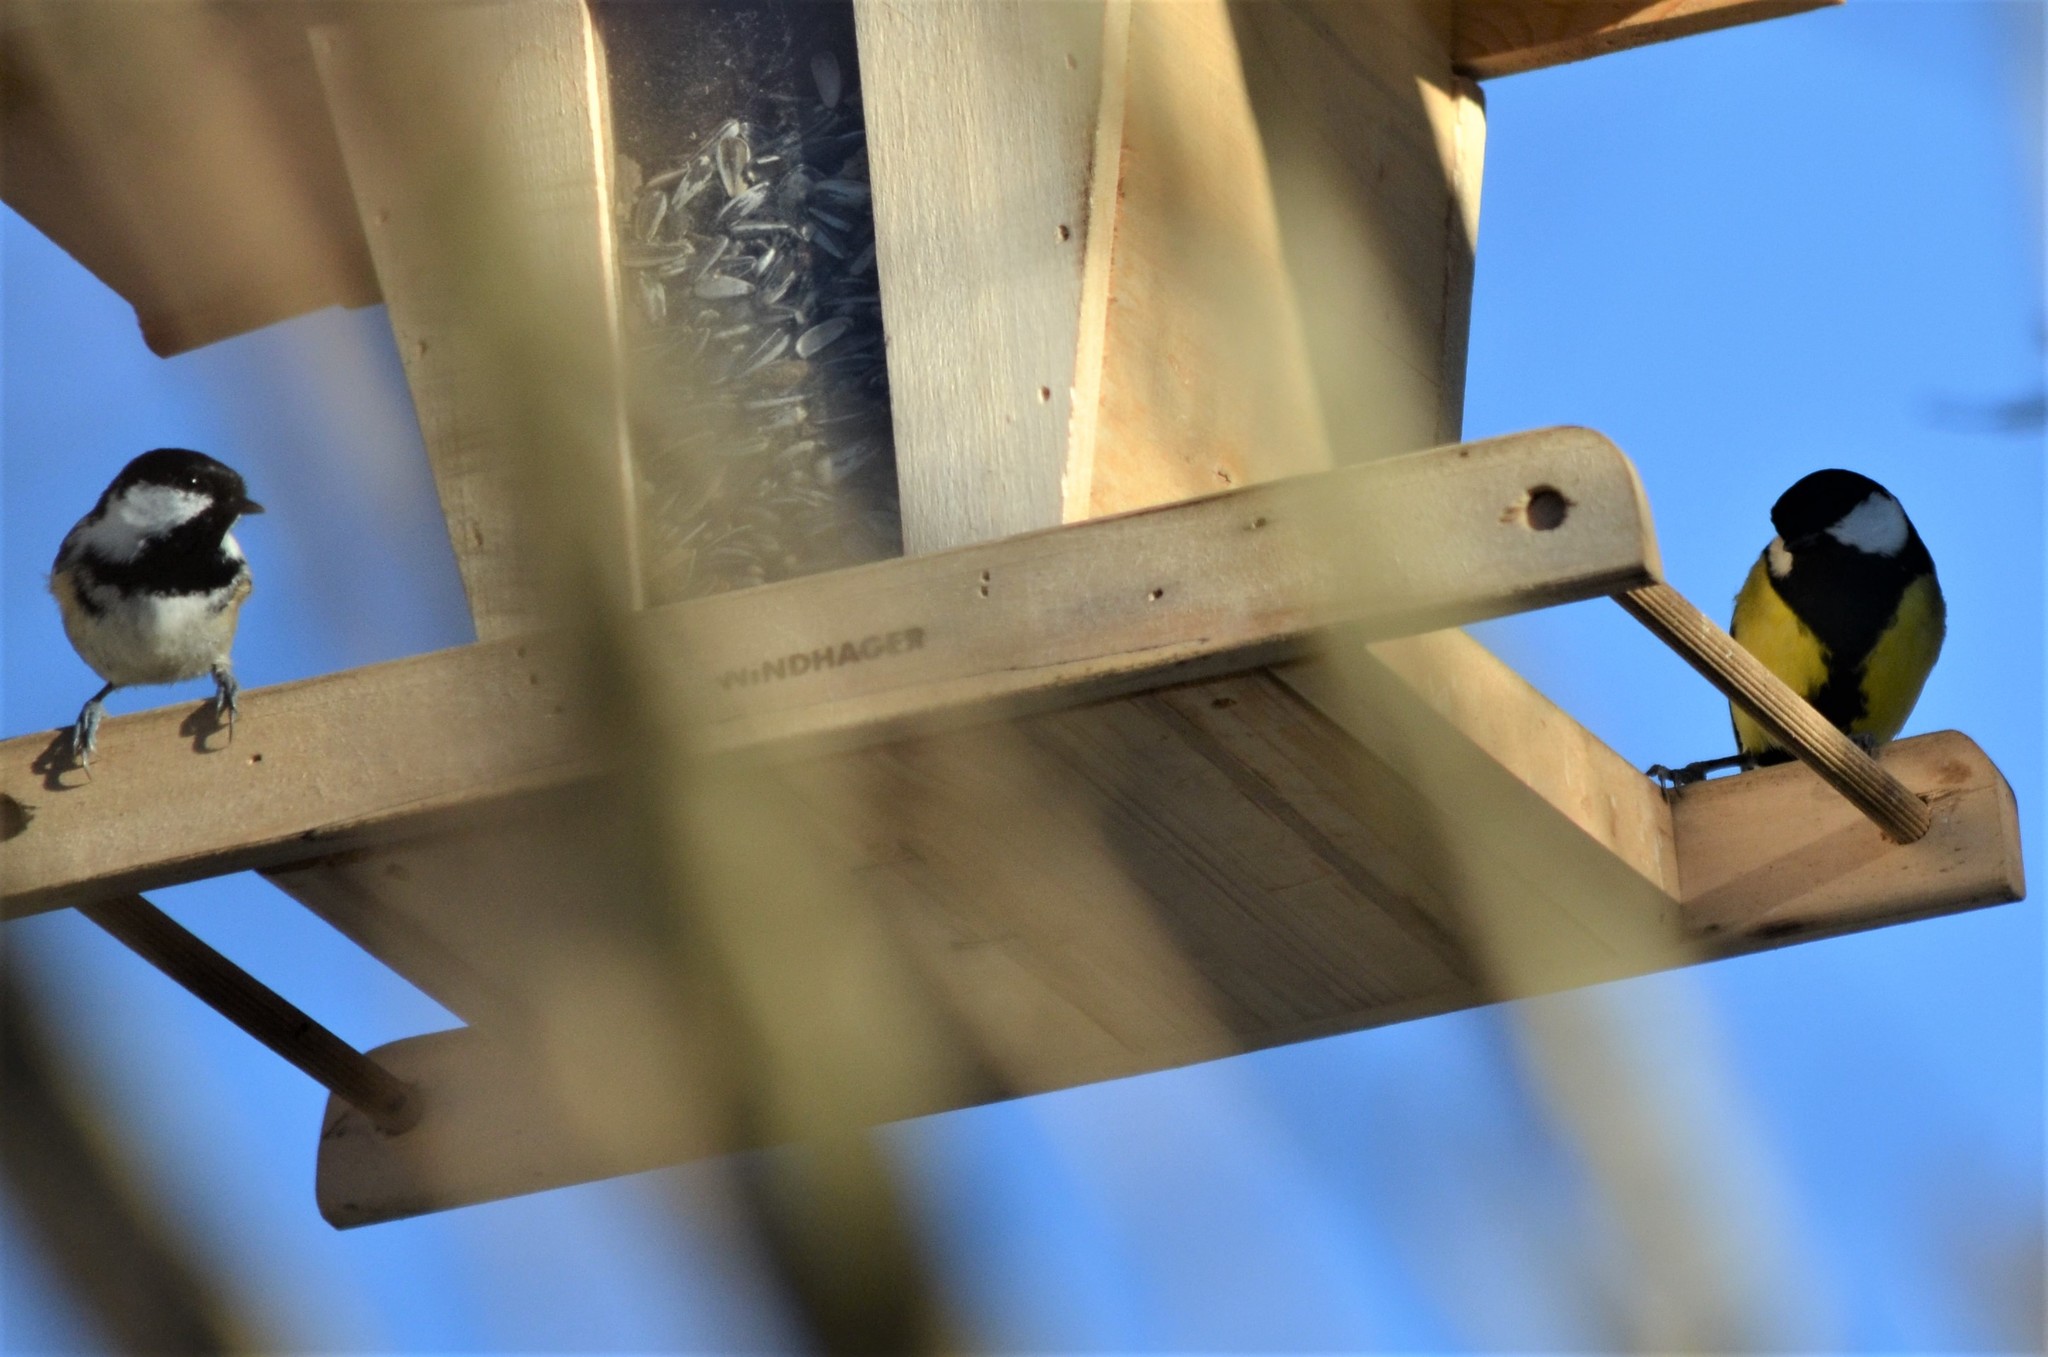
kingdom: Animalia
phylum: Chordata
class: Aves
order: Passeriformes
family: Paridae
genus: Parus
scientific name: Parus major
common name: Great tit
